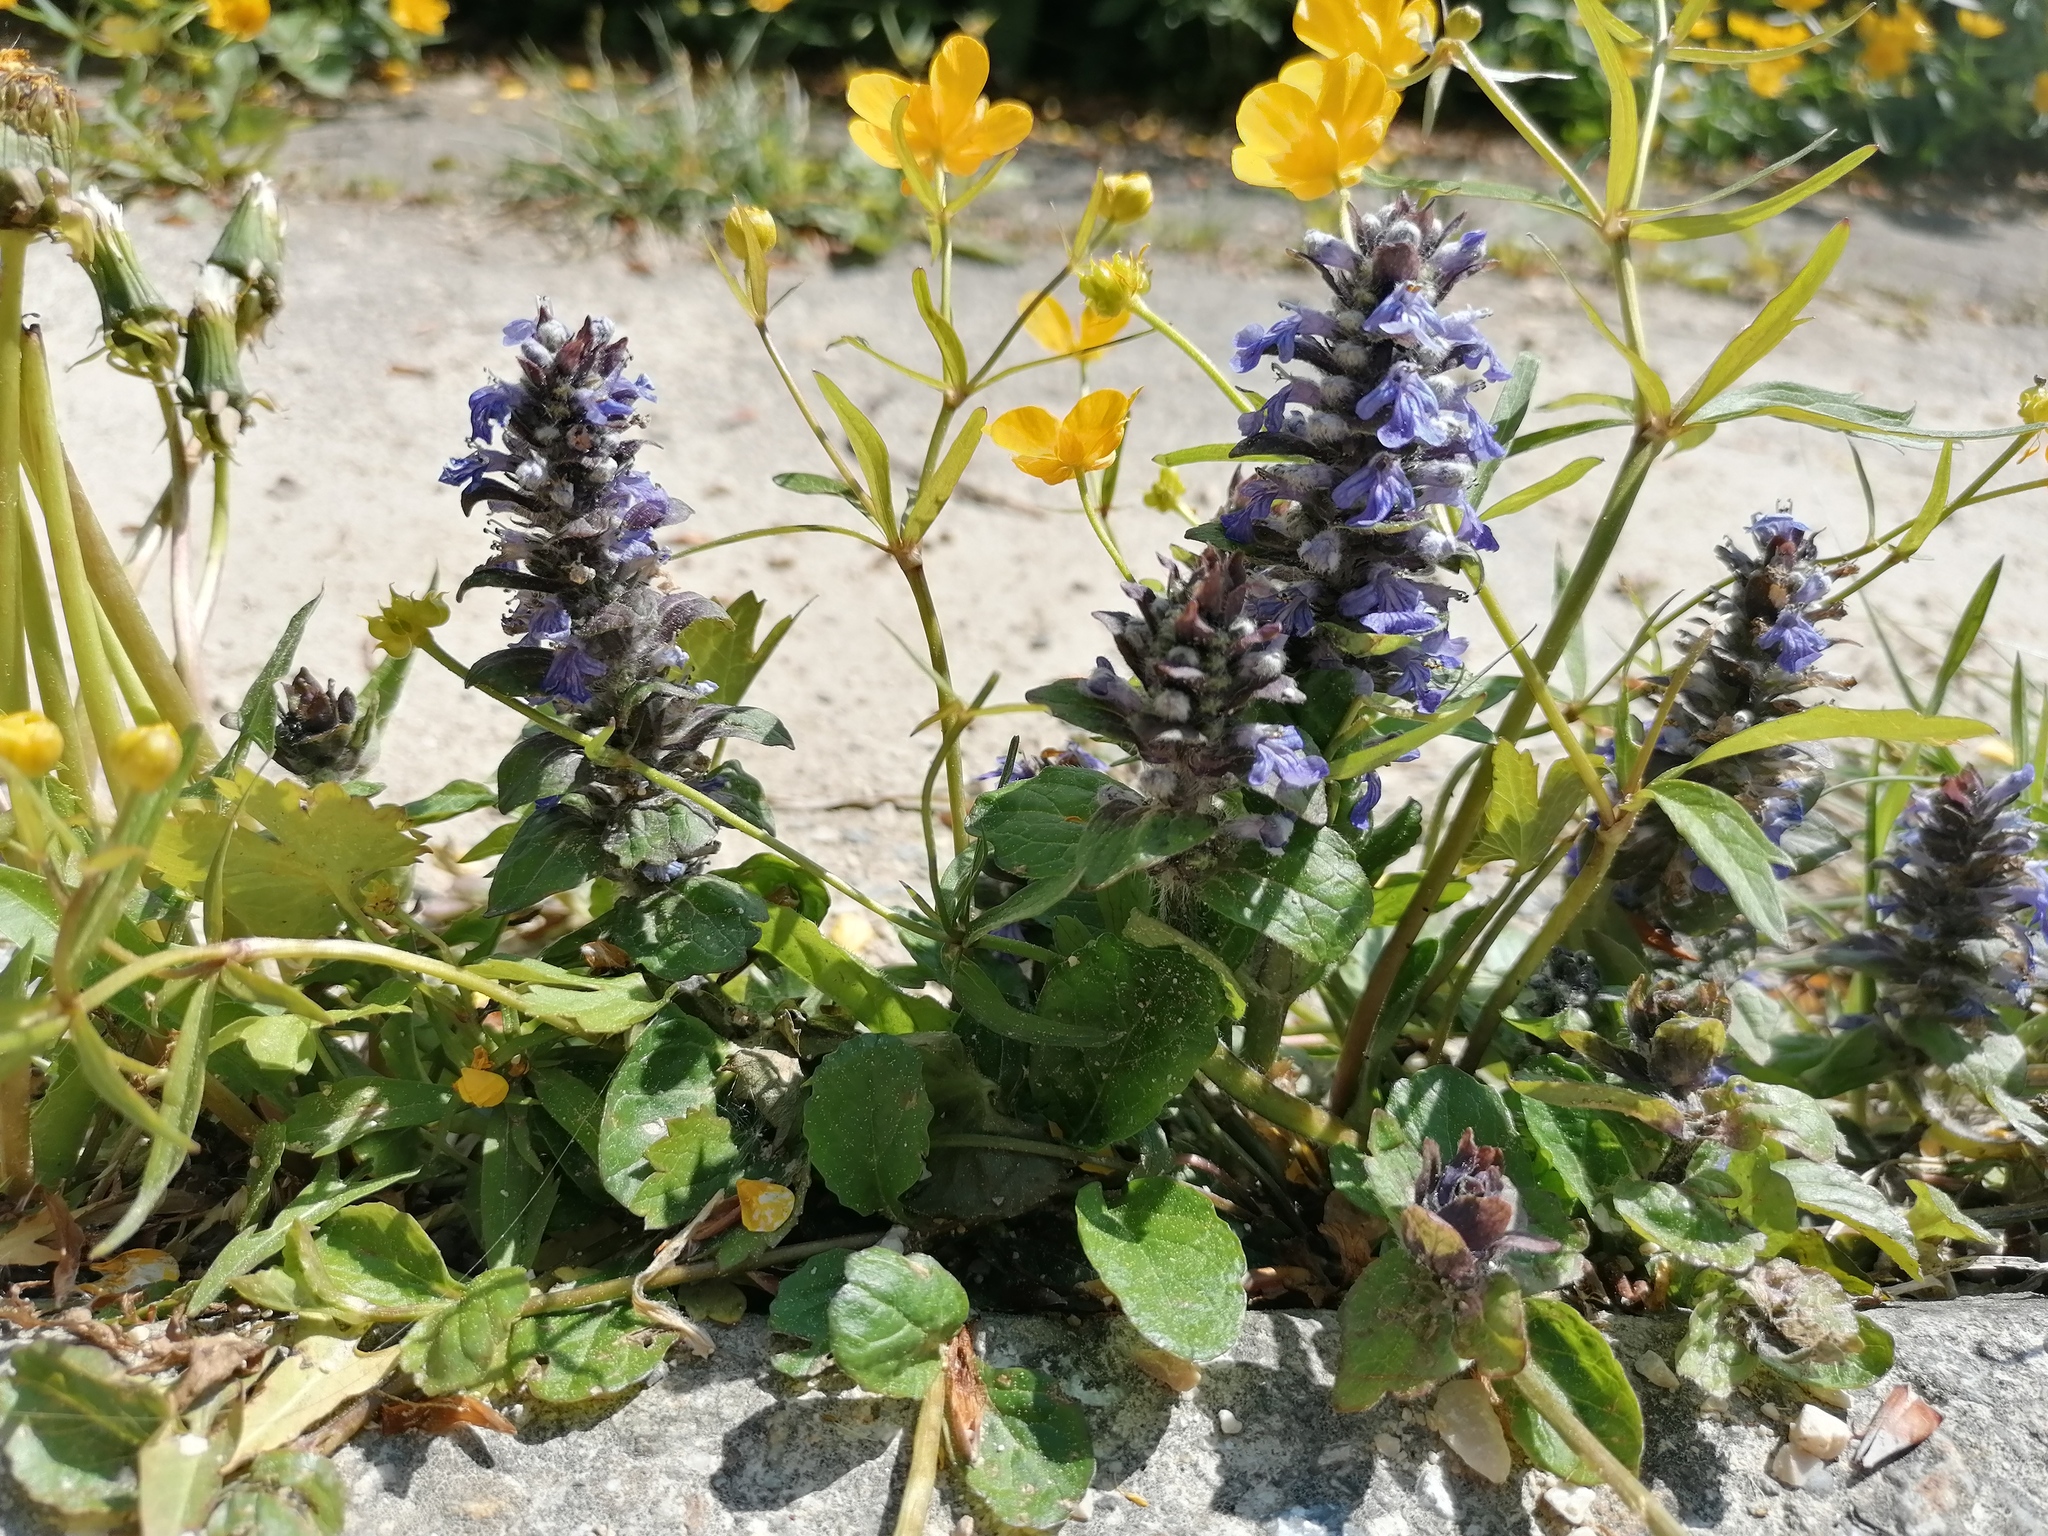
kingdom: Plantae
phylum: Tracheophyta
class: Magnoliopsida
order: Ranunculales
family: Ranunculaceae
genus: Ranunculus
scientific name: Ranunculus auricomus
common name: Goldilocks buttercup
